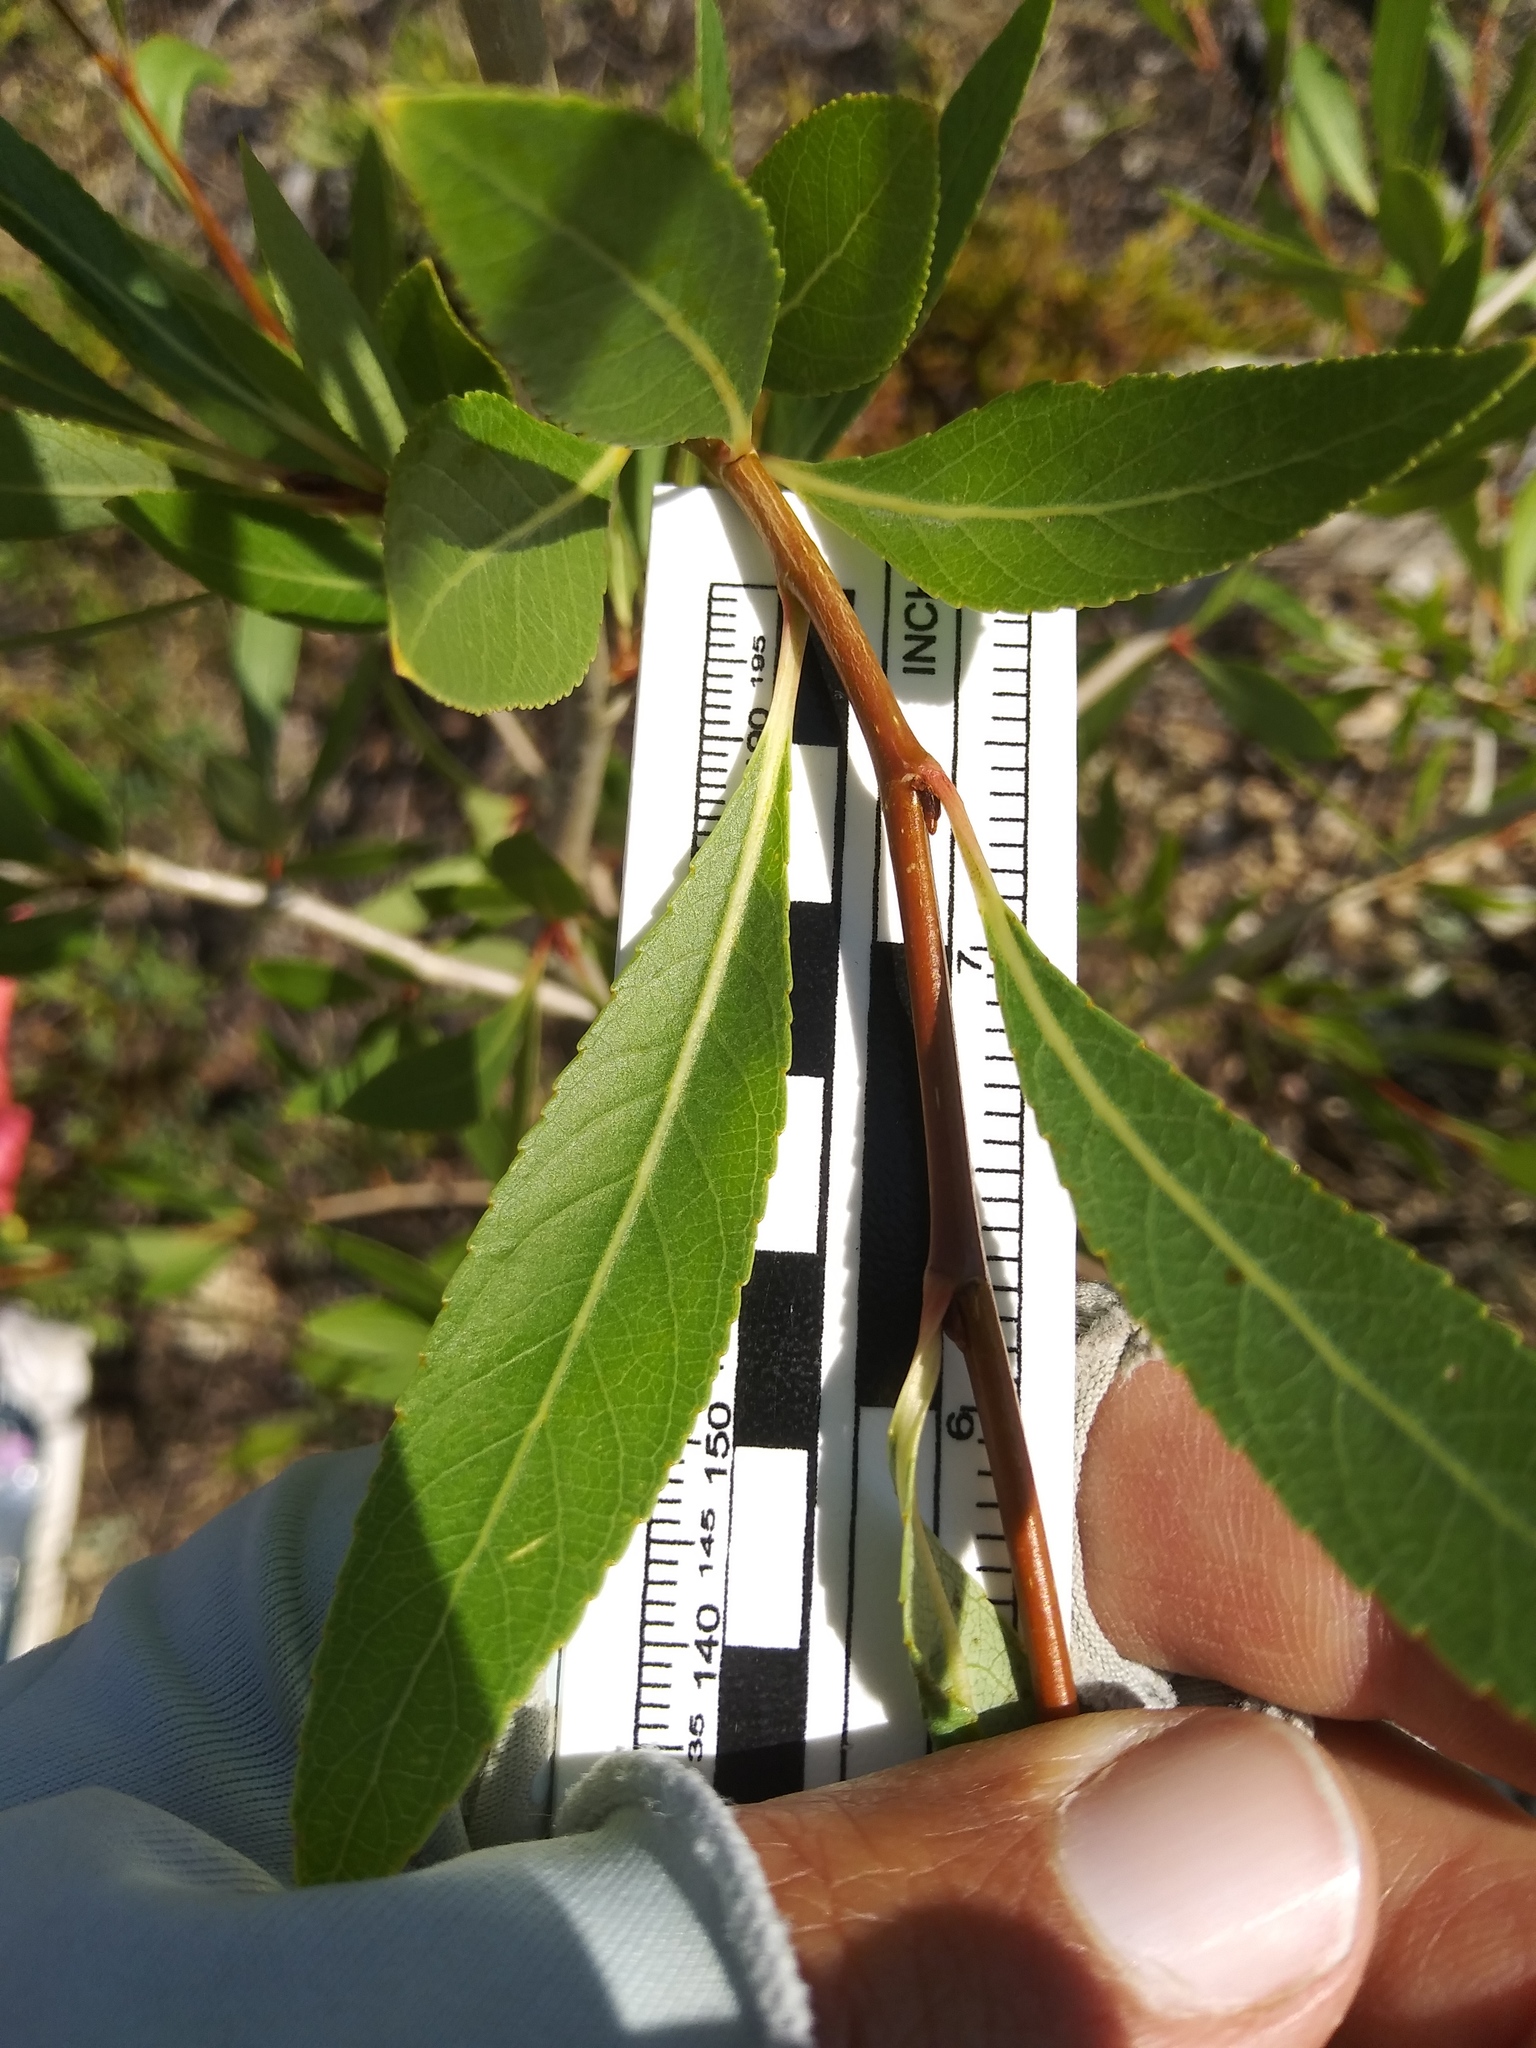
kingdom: Plantae
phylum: Tracheophyta
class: Magnoliopsida
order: Malpighiales
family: Salicaceae
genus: Populus
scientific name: Populus angustifolia
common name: Willow cottonwood
